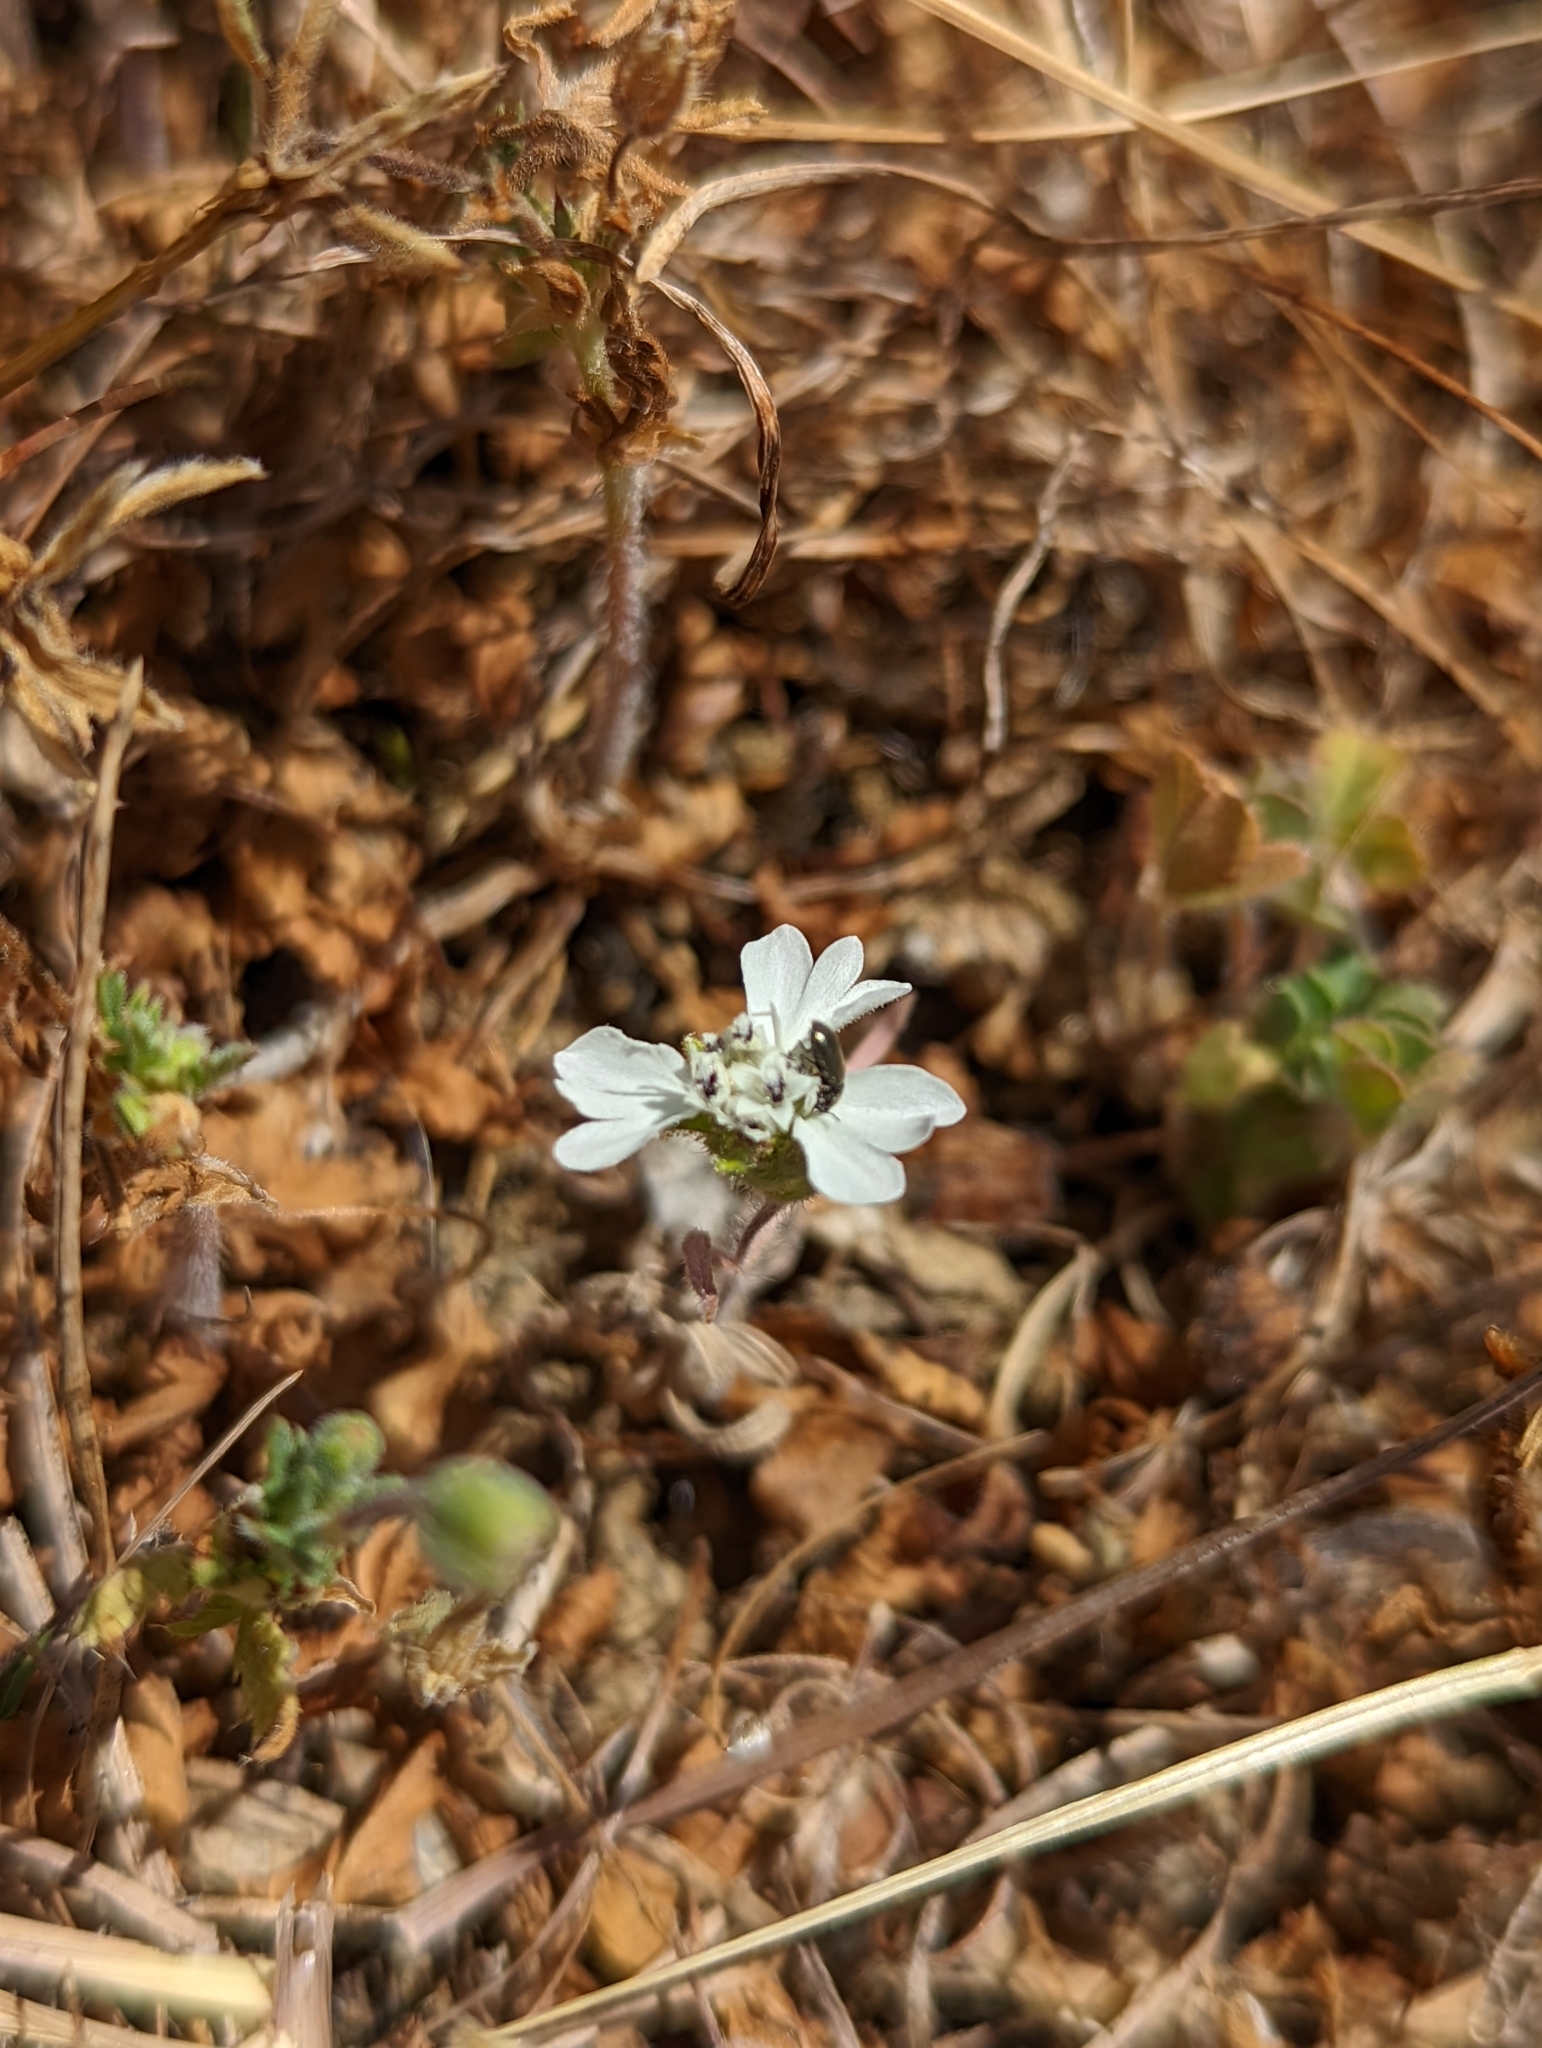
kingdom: Plantae
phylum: Tracheophyta
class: Magnoliopsida
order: Asterales
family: Asteraceae
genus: Hemizonia
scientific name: Hemizonia congesta
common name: Hayfield tarweed
